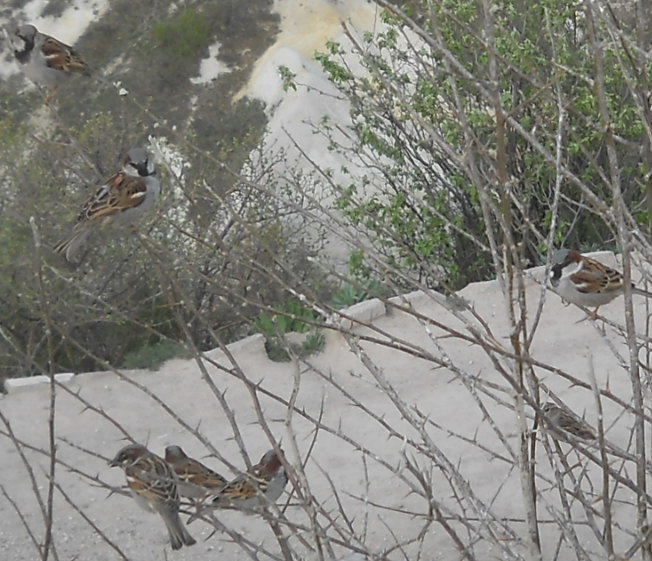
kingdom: Animalia
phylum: Chordata
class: Aves
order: Passeriformes
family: Passeridae
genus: Passer
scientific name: Passer domesticus
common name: House sparrow
